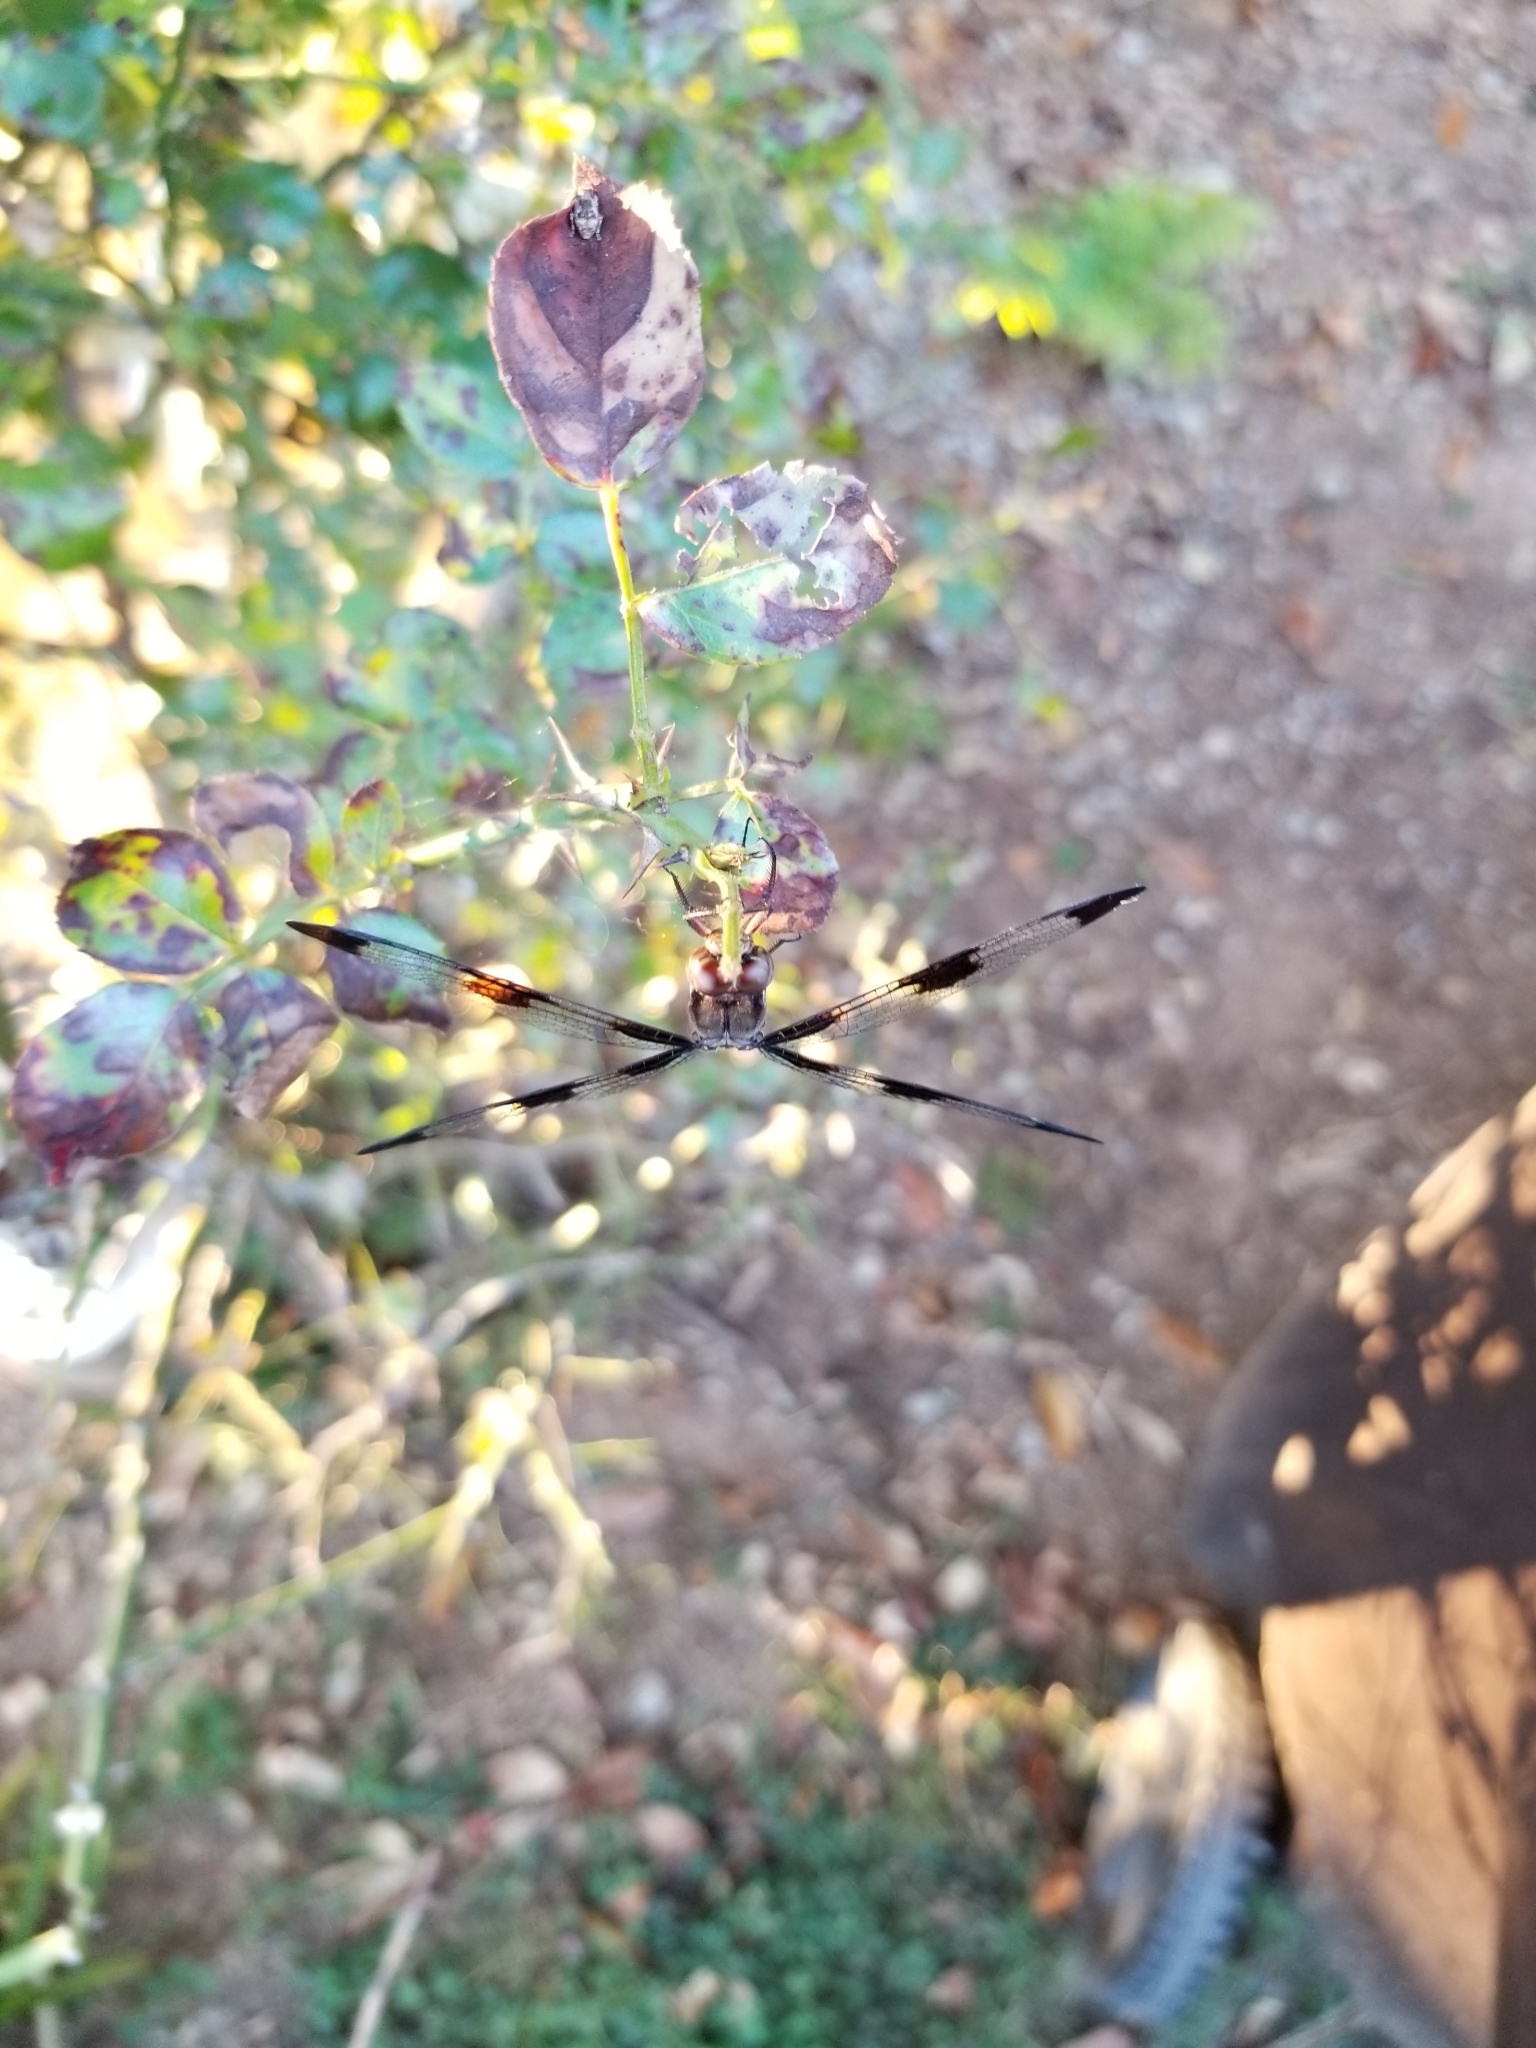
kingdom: Animalia
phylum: Arthropoda
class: Insecta
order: Odonata
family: Libellulidae
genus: Plathemis
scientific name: Plathemis lydia
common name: Common whitetail
